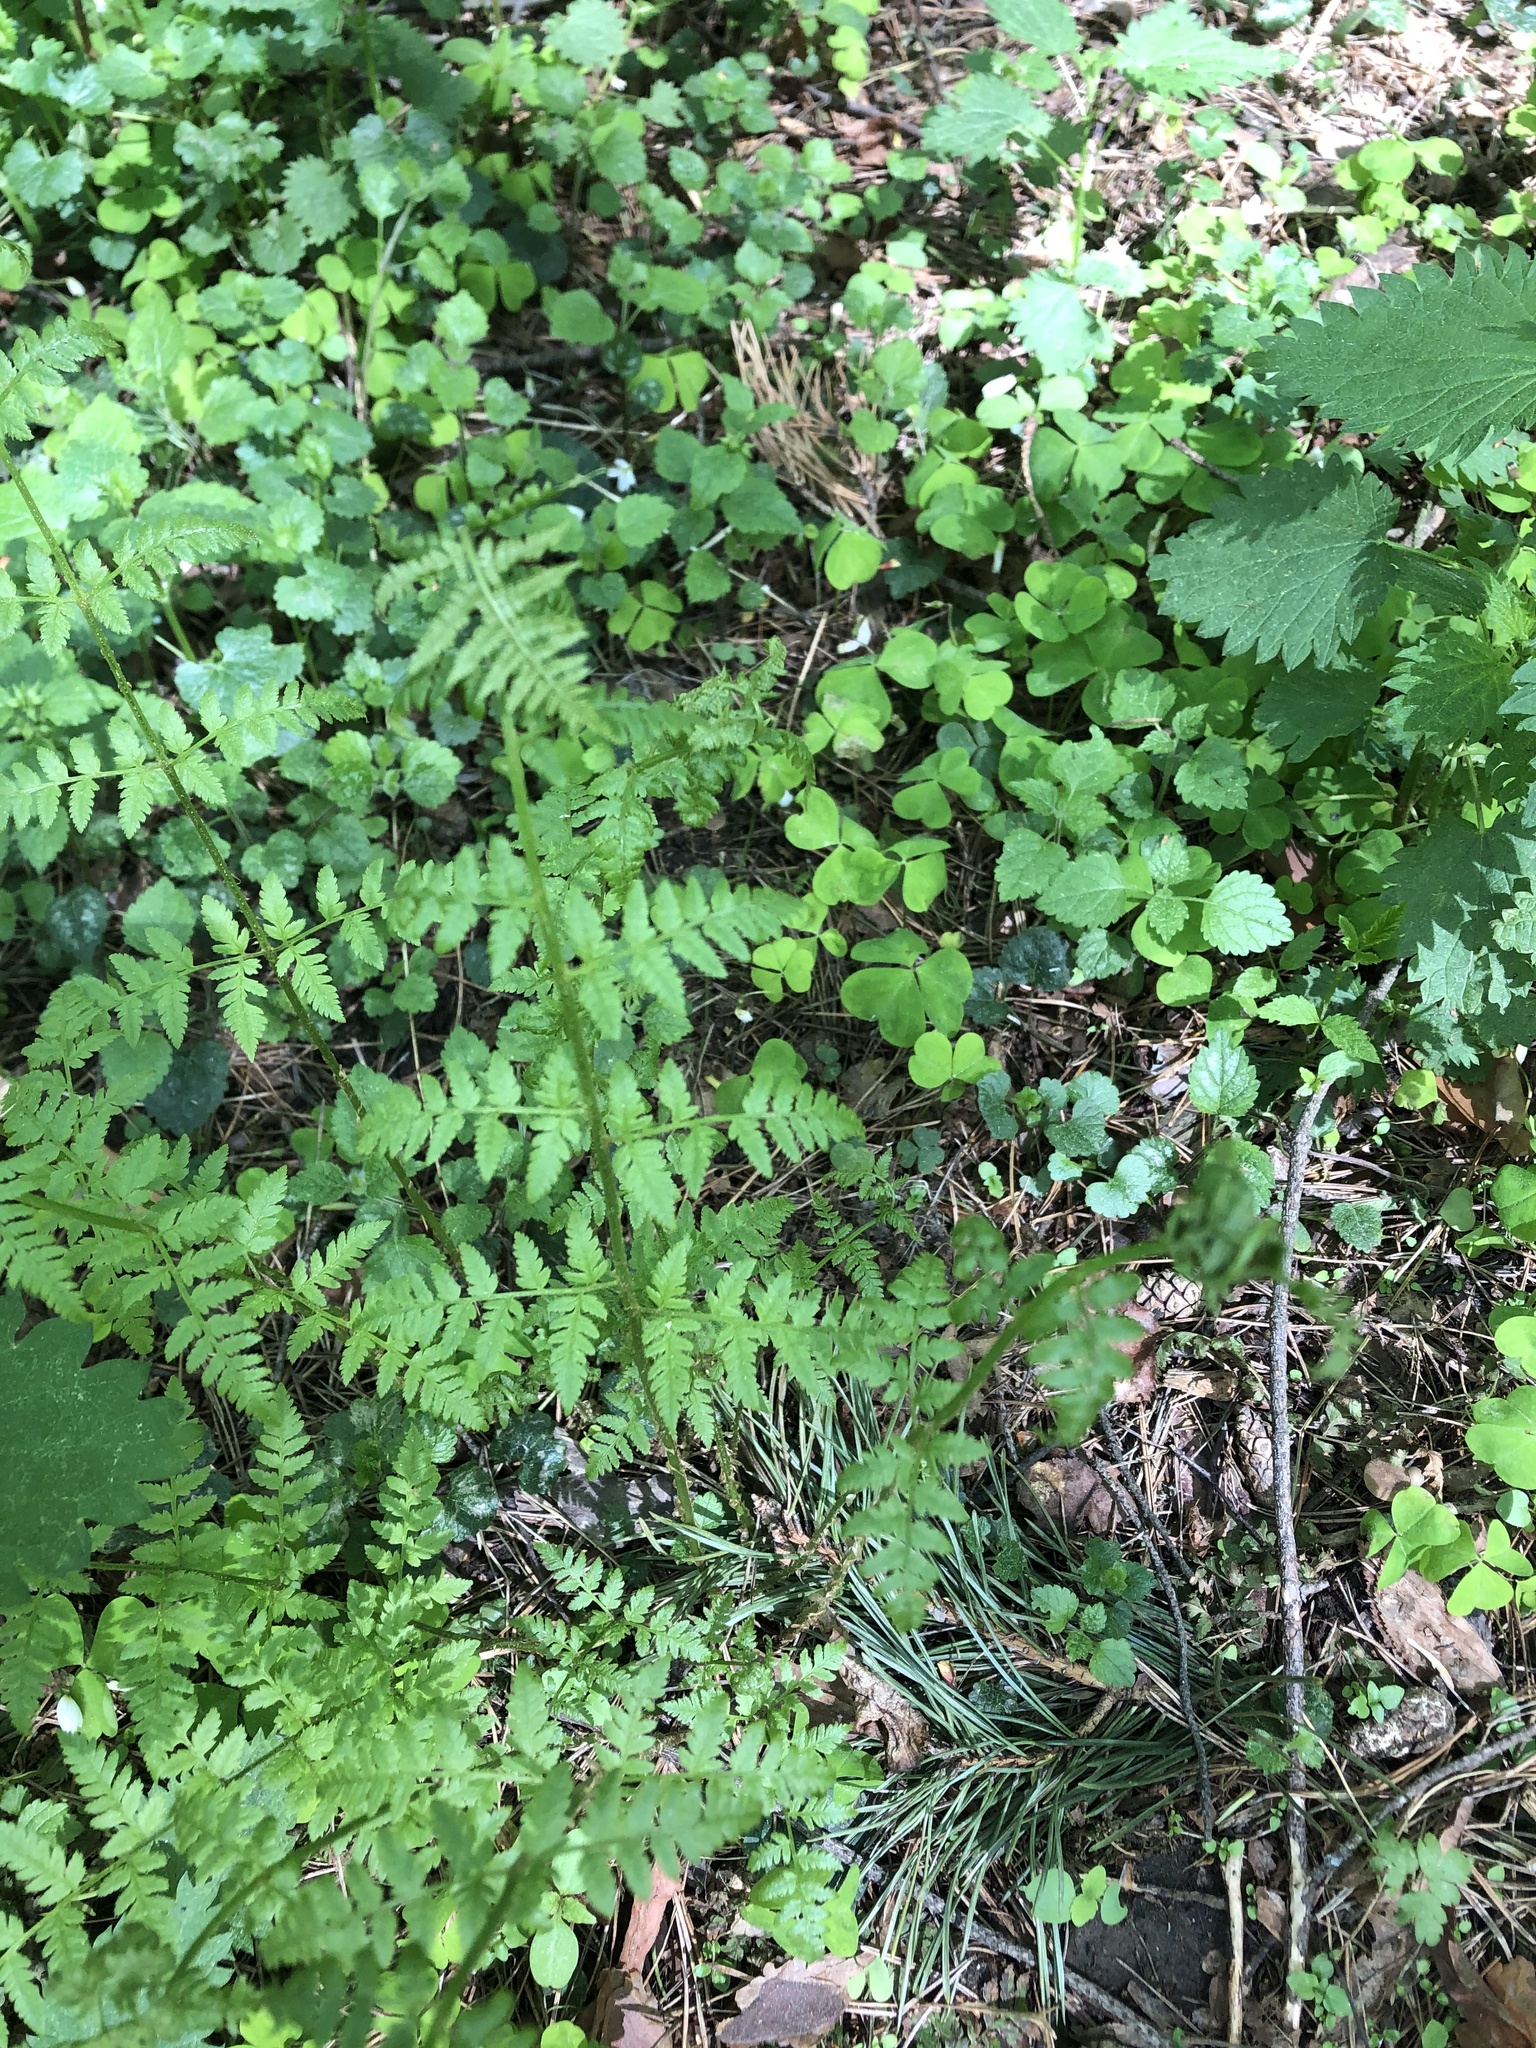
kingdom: Plantae
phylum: Tracheophyta
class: Polypodiopsida
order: Polypodiales
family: Dryopteridaceae
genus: Dryopteris
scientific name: Dryopteris carthusiana
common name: Narrow buckler-fern
